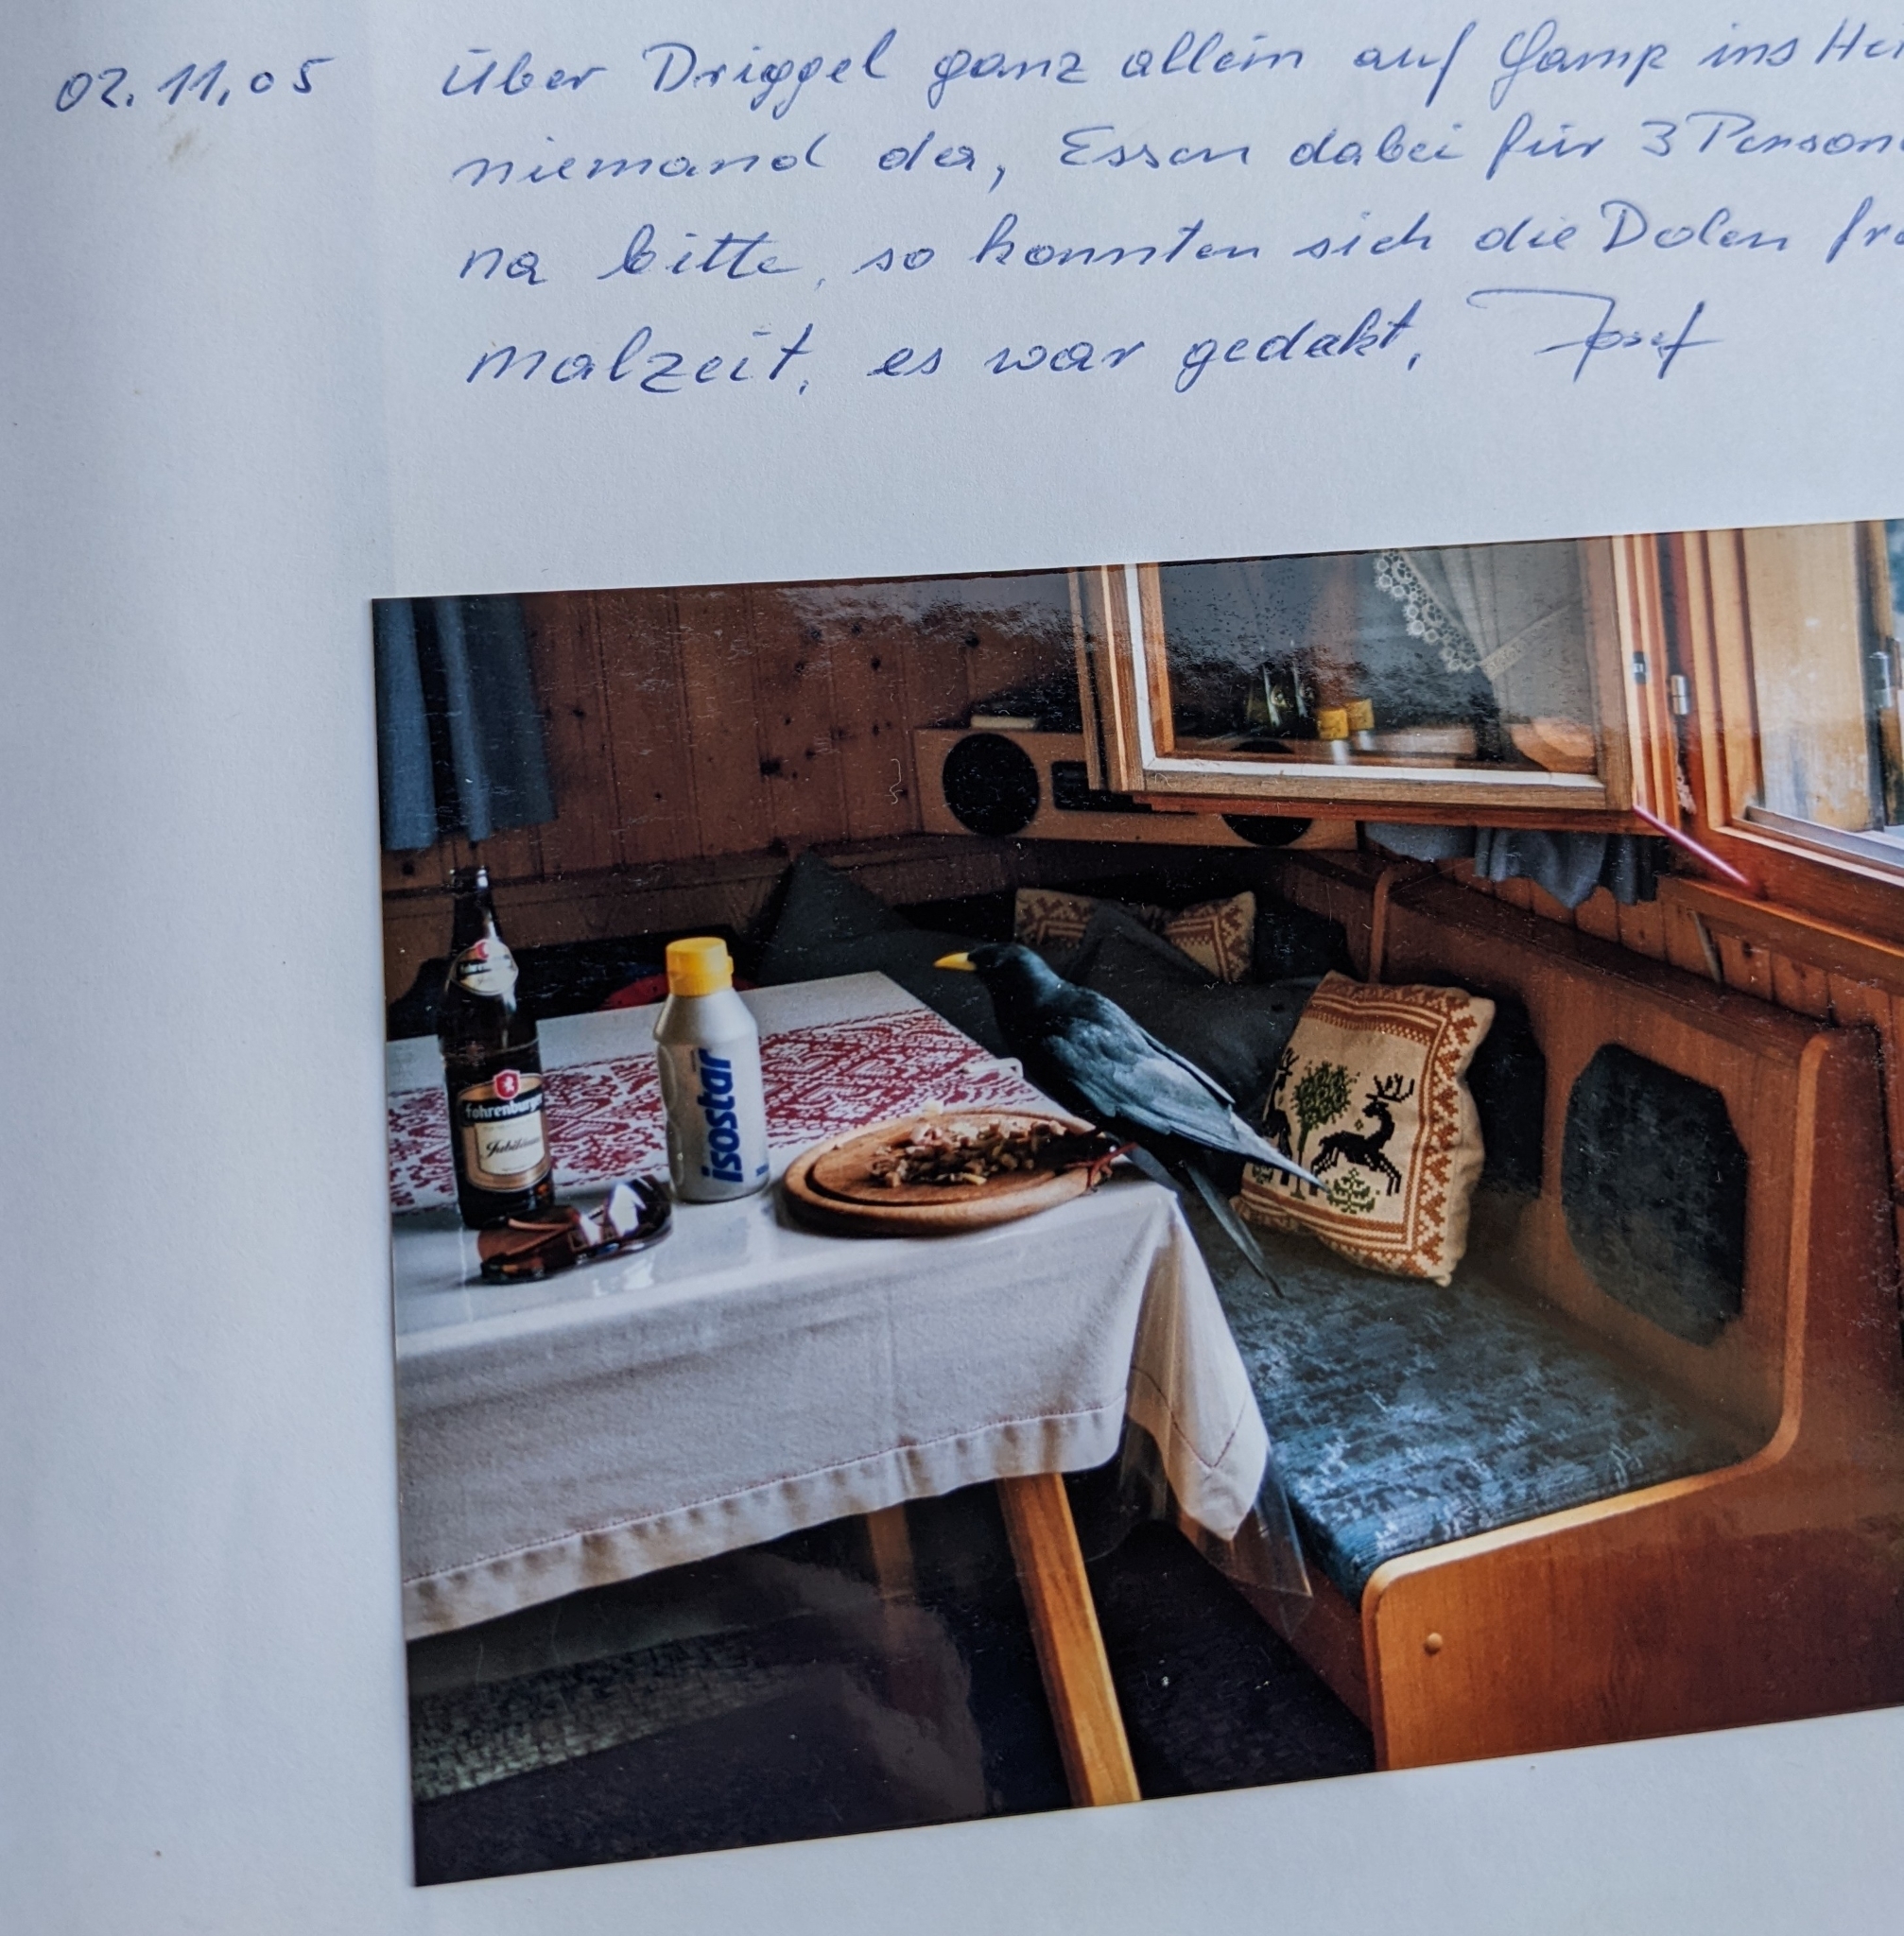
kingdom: Animalia
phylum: Chordata
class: Aves
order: Passeriformes
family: Corvidae
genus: Pyrrhocorax
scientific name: Pyrrhocorax graculus
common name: Alpine chough
